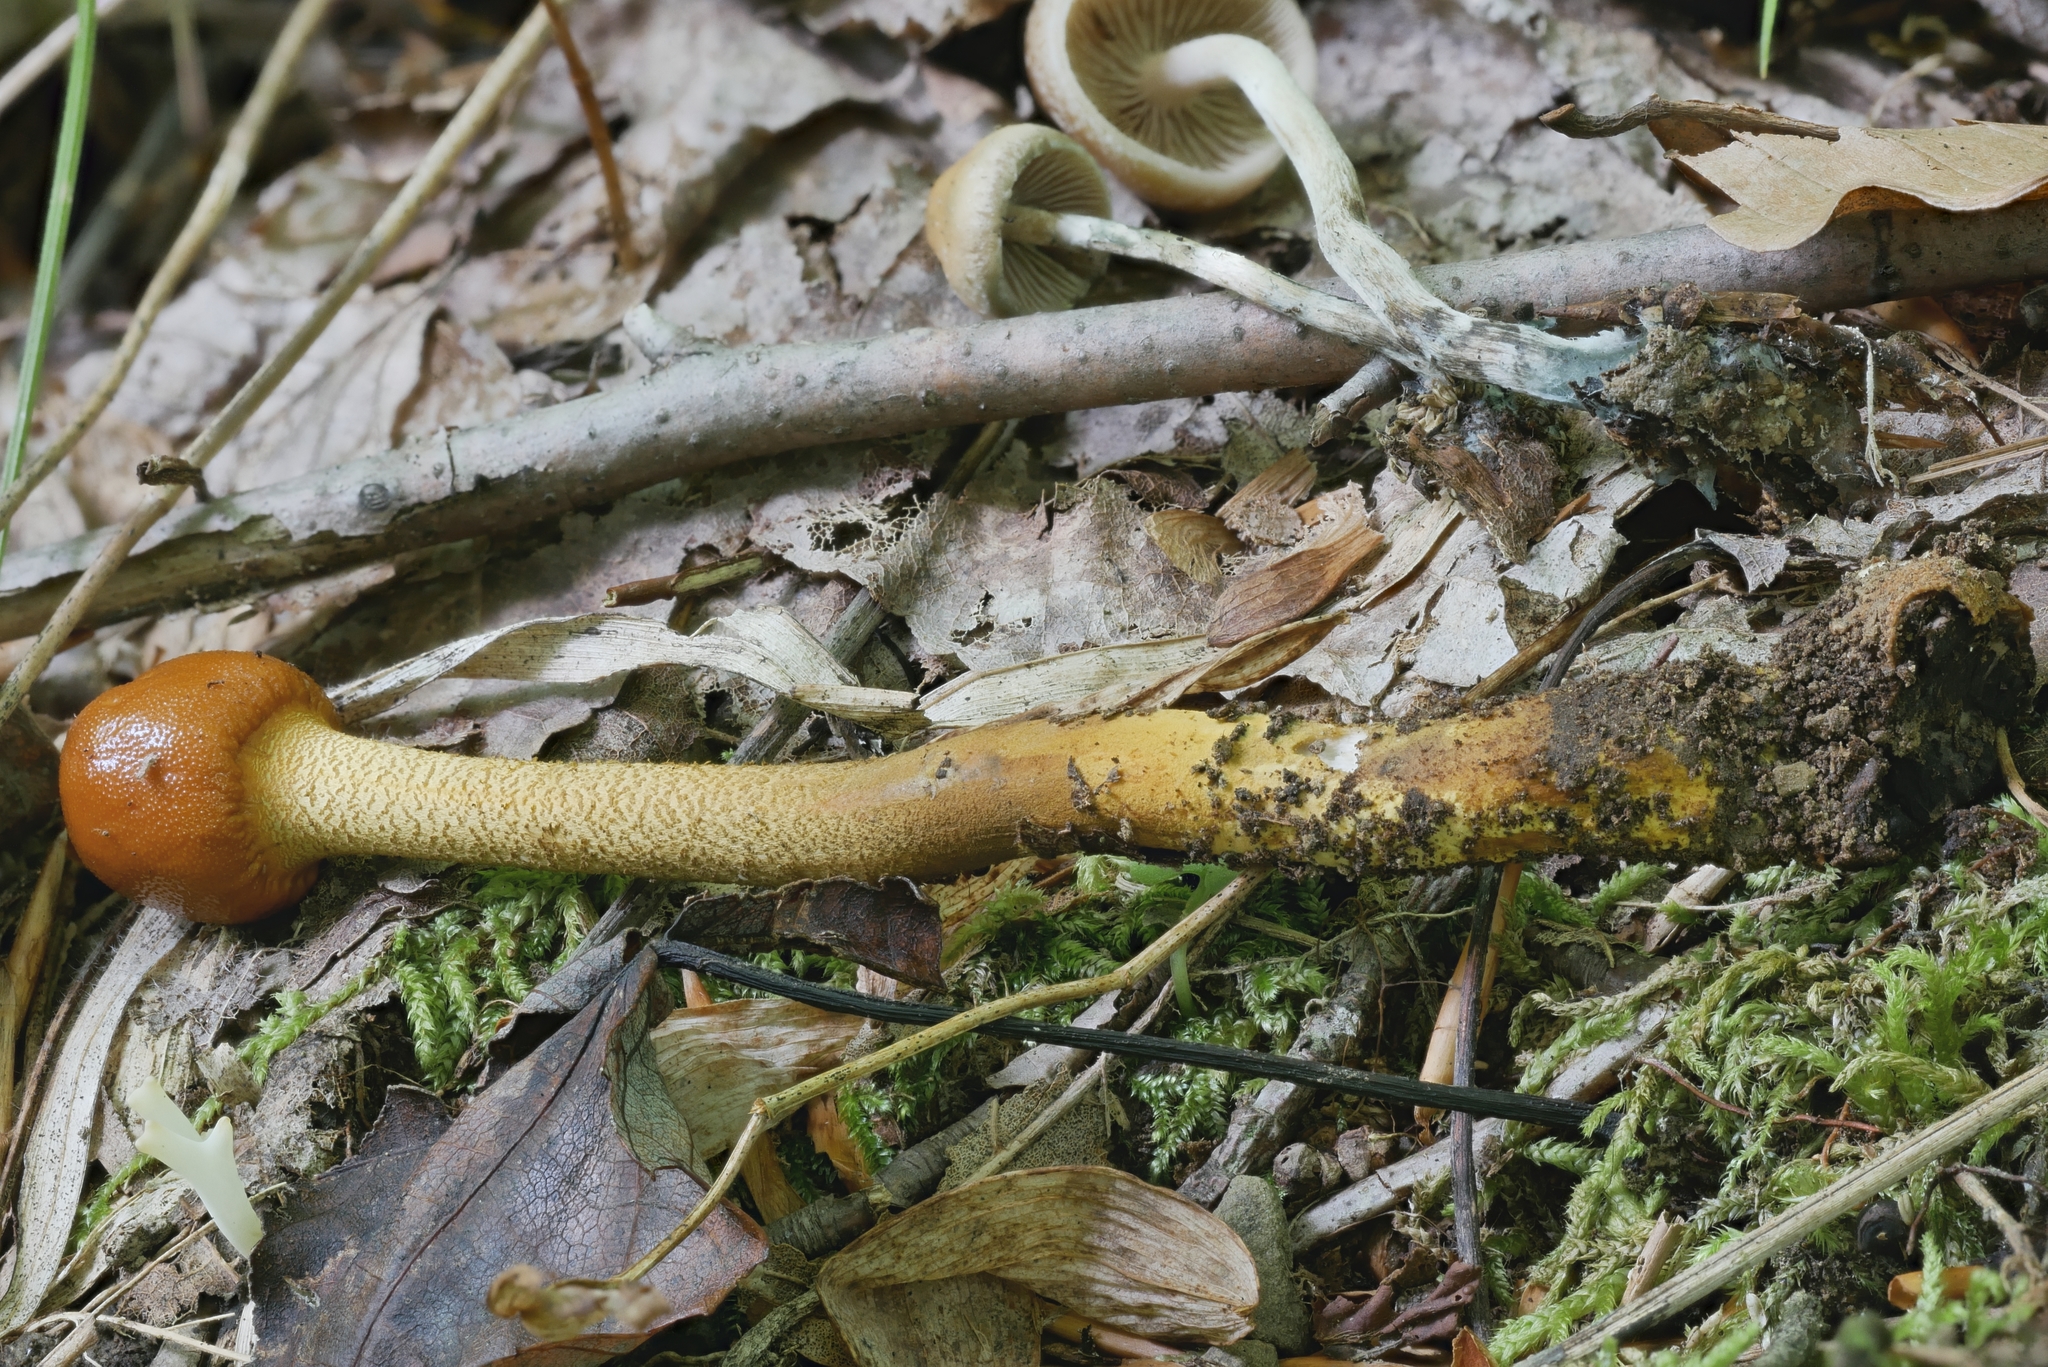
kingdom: Fungi
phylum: Ascomycota
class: Sordariomycetes
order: Hypocreales
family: Ophiocordycipitaceae
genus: Tolypocladium
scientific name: Tolypocladium longisegmentatum
